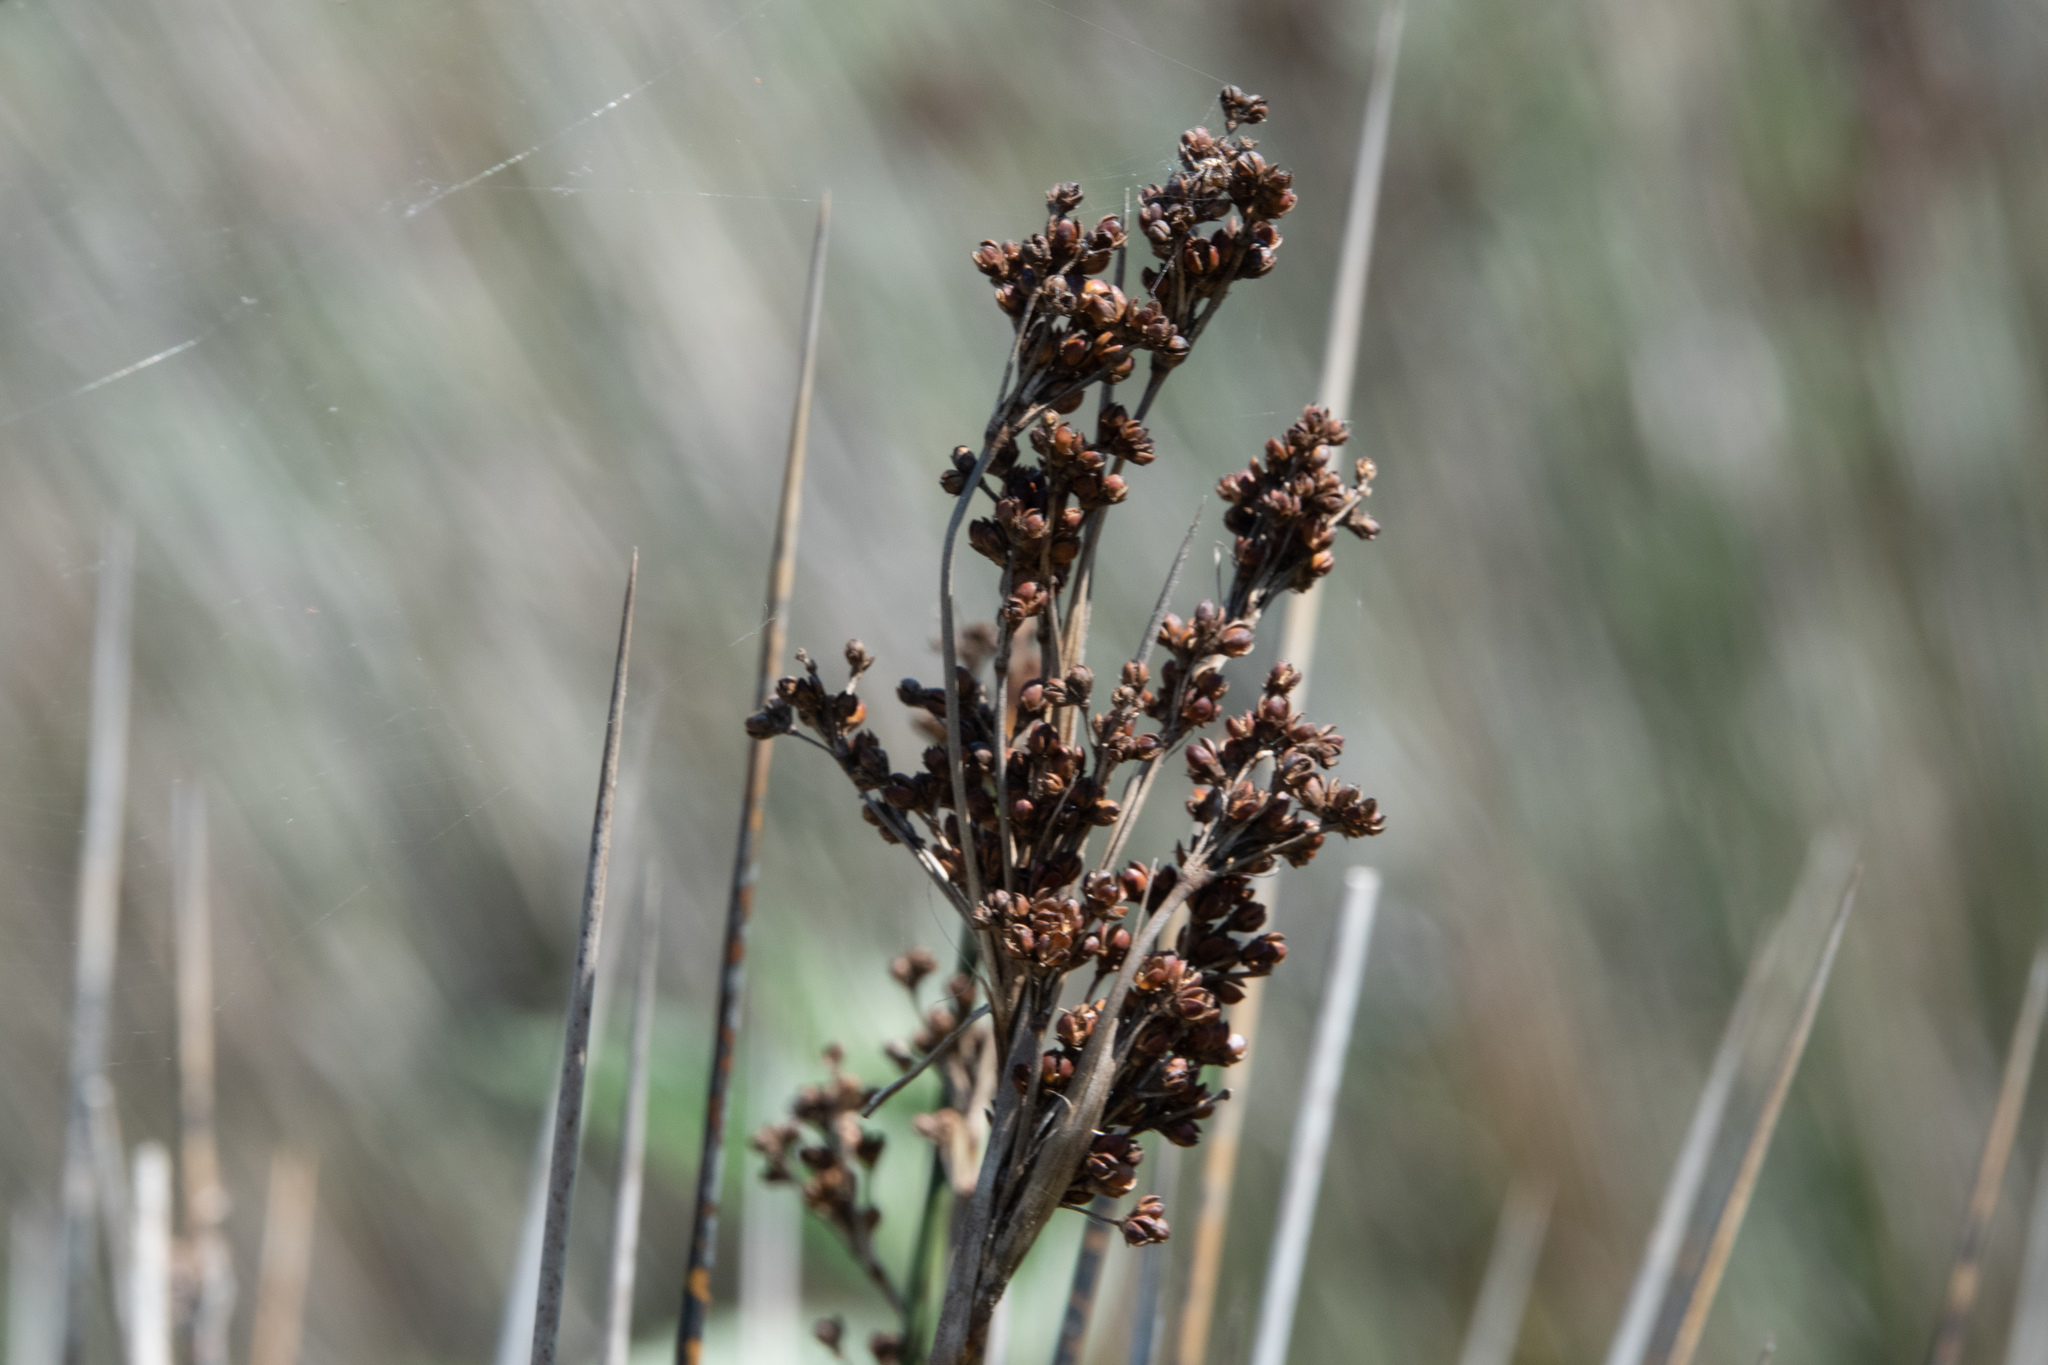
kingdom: Plantae
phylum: Tracheophyta
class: Liliopsida
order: Poales
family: Juncaceae
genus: Juncus
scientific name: Juncus acutus
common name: Sharp rush
